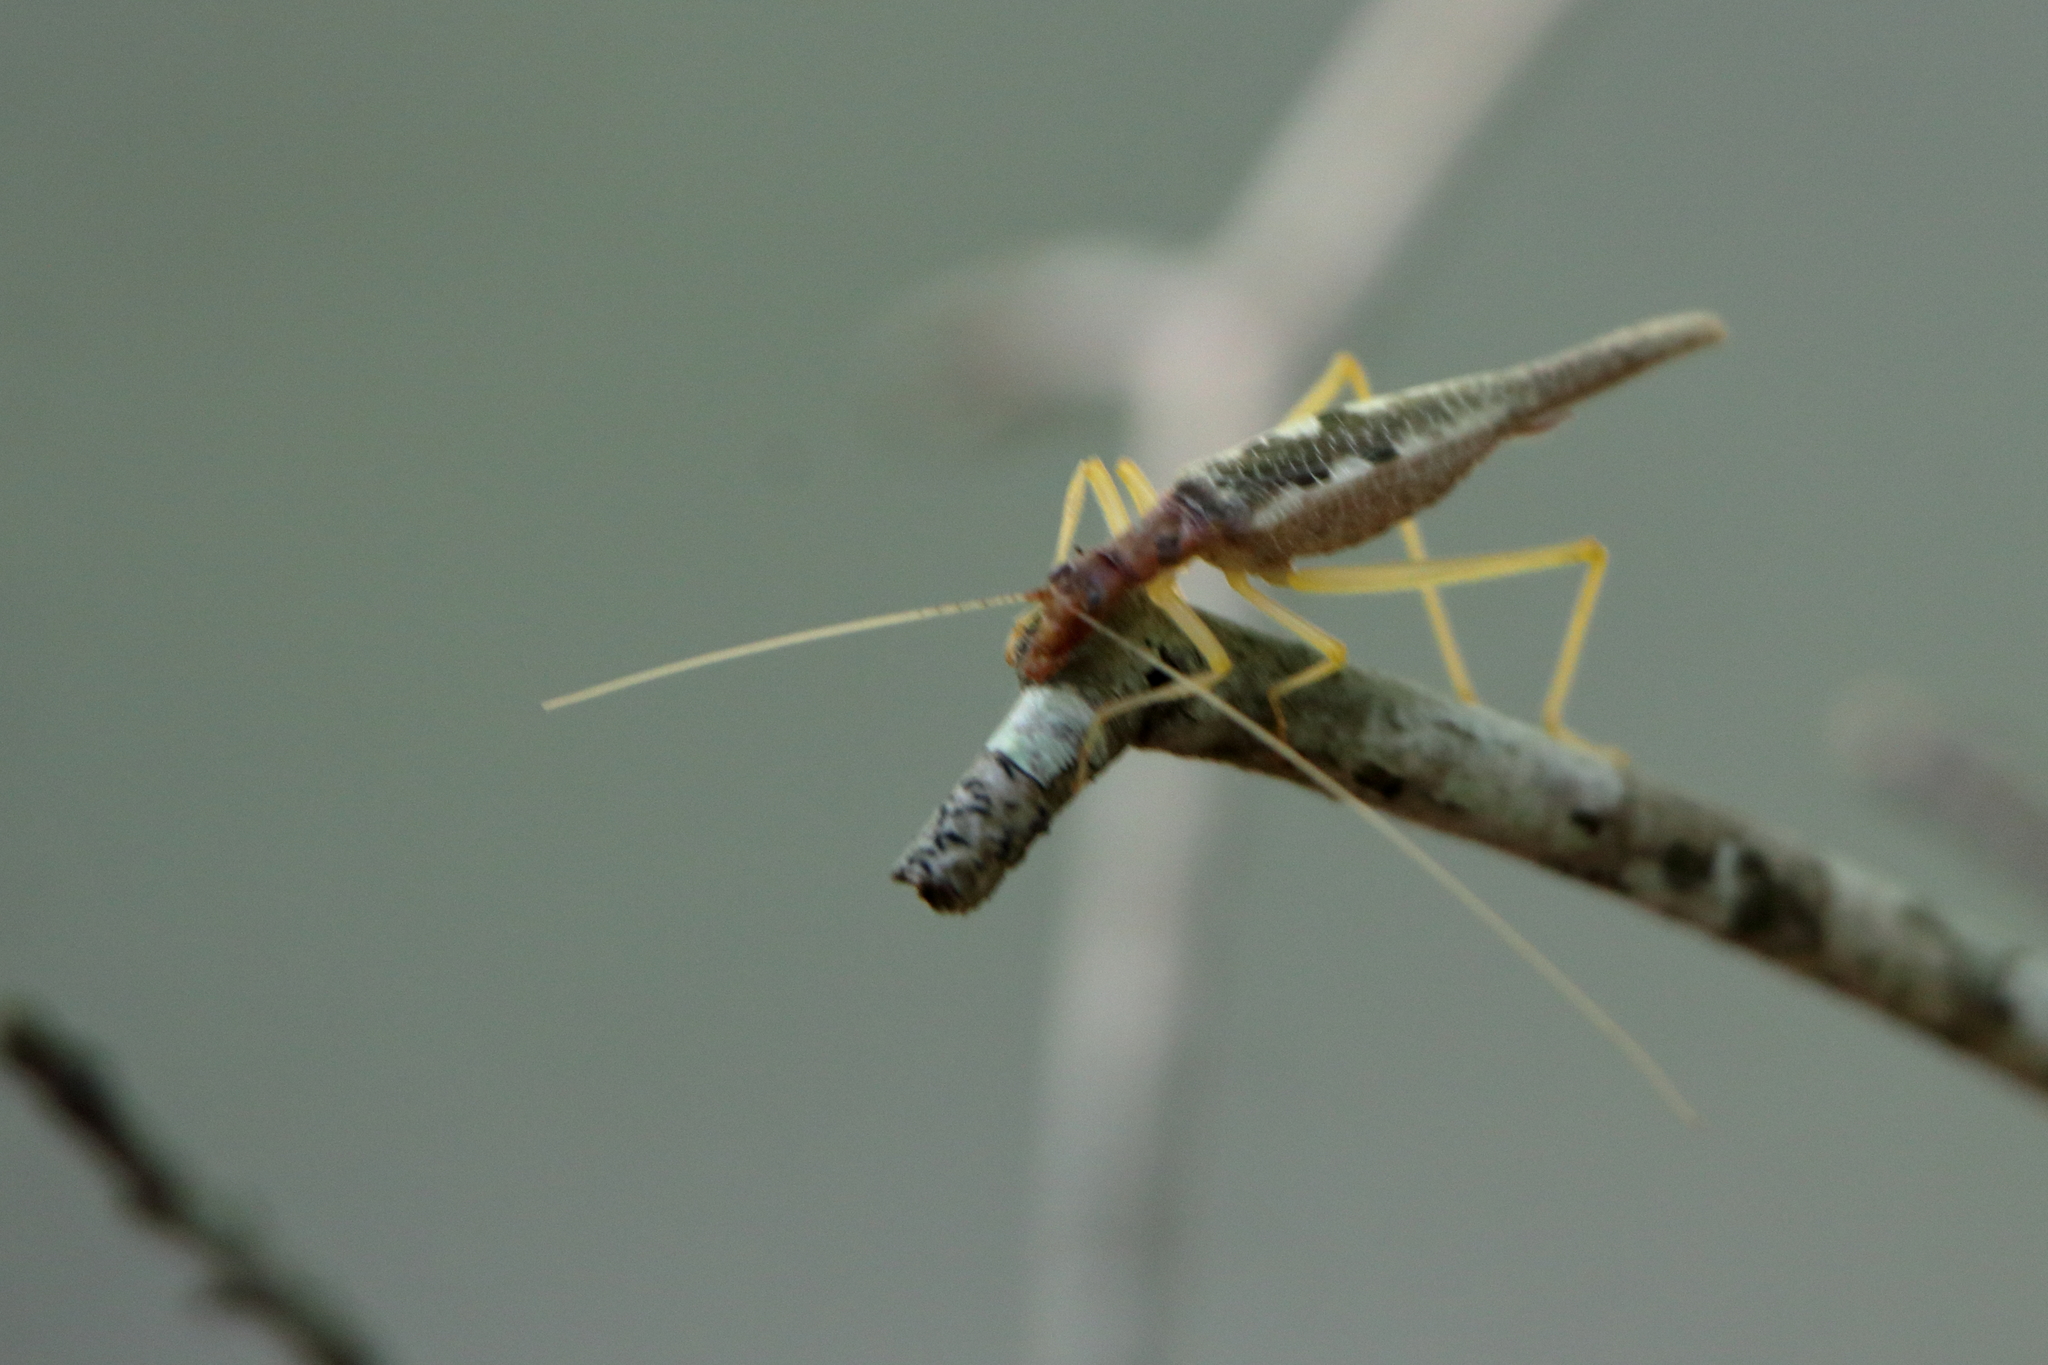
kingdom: Animalia
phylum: Arthropoda
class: Insecta
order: Orthoptera
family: Gryllidae
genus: Neoxabea
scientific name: Neoxabea bipunctata
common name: Two-spotted tree cricket
